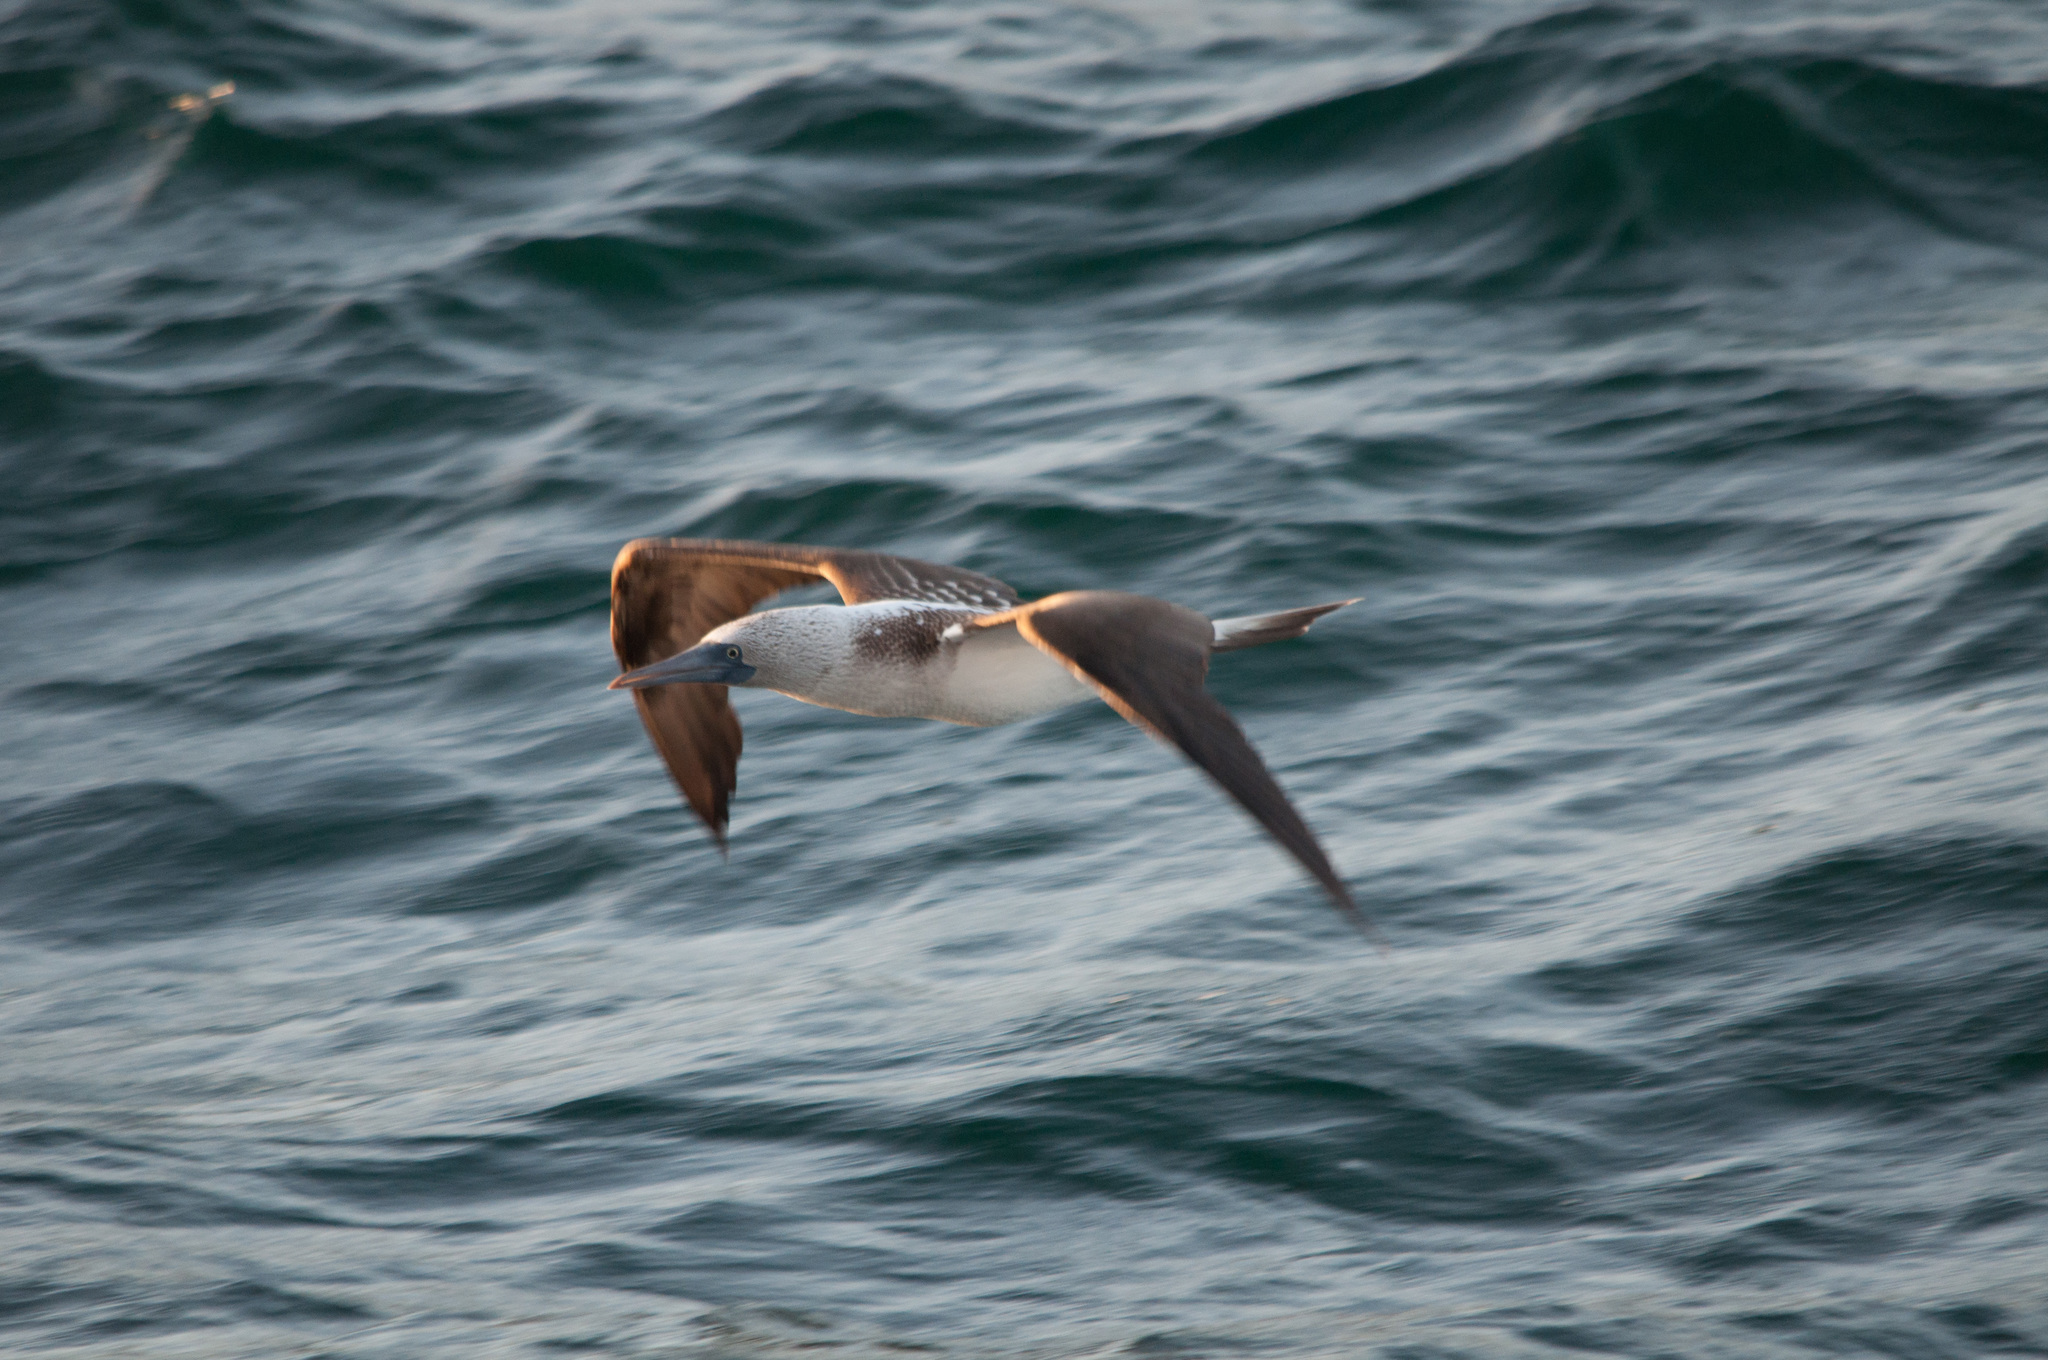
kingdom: Animalia
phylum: Chordata
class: Aves
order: Suliformes
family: Sulidae
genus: Sula
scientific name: Sula nebouxii
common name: Blue-footed booby
